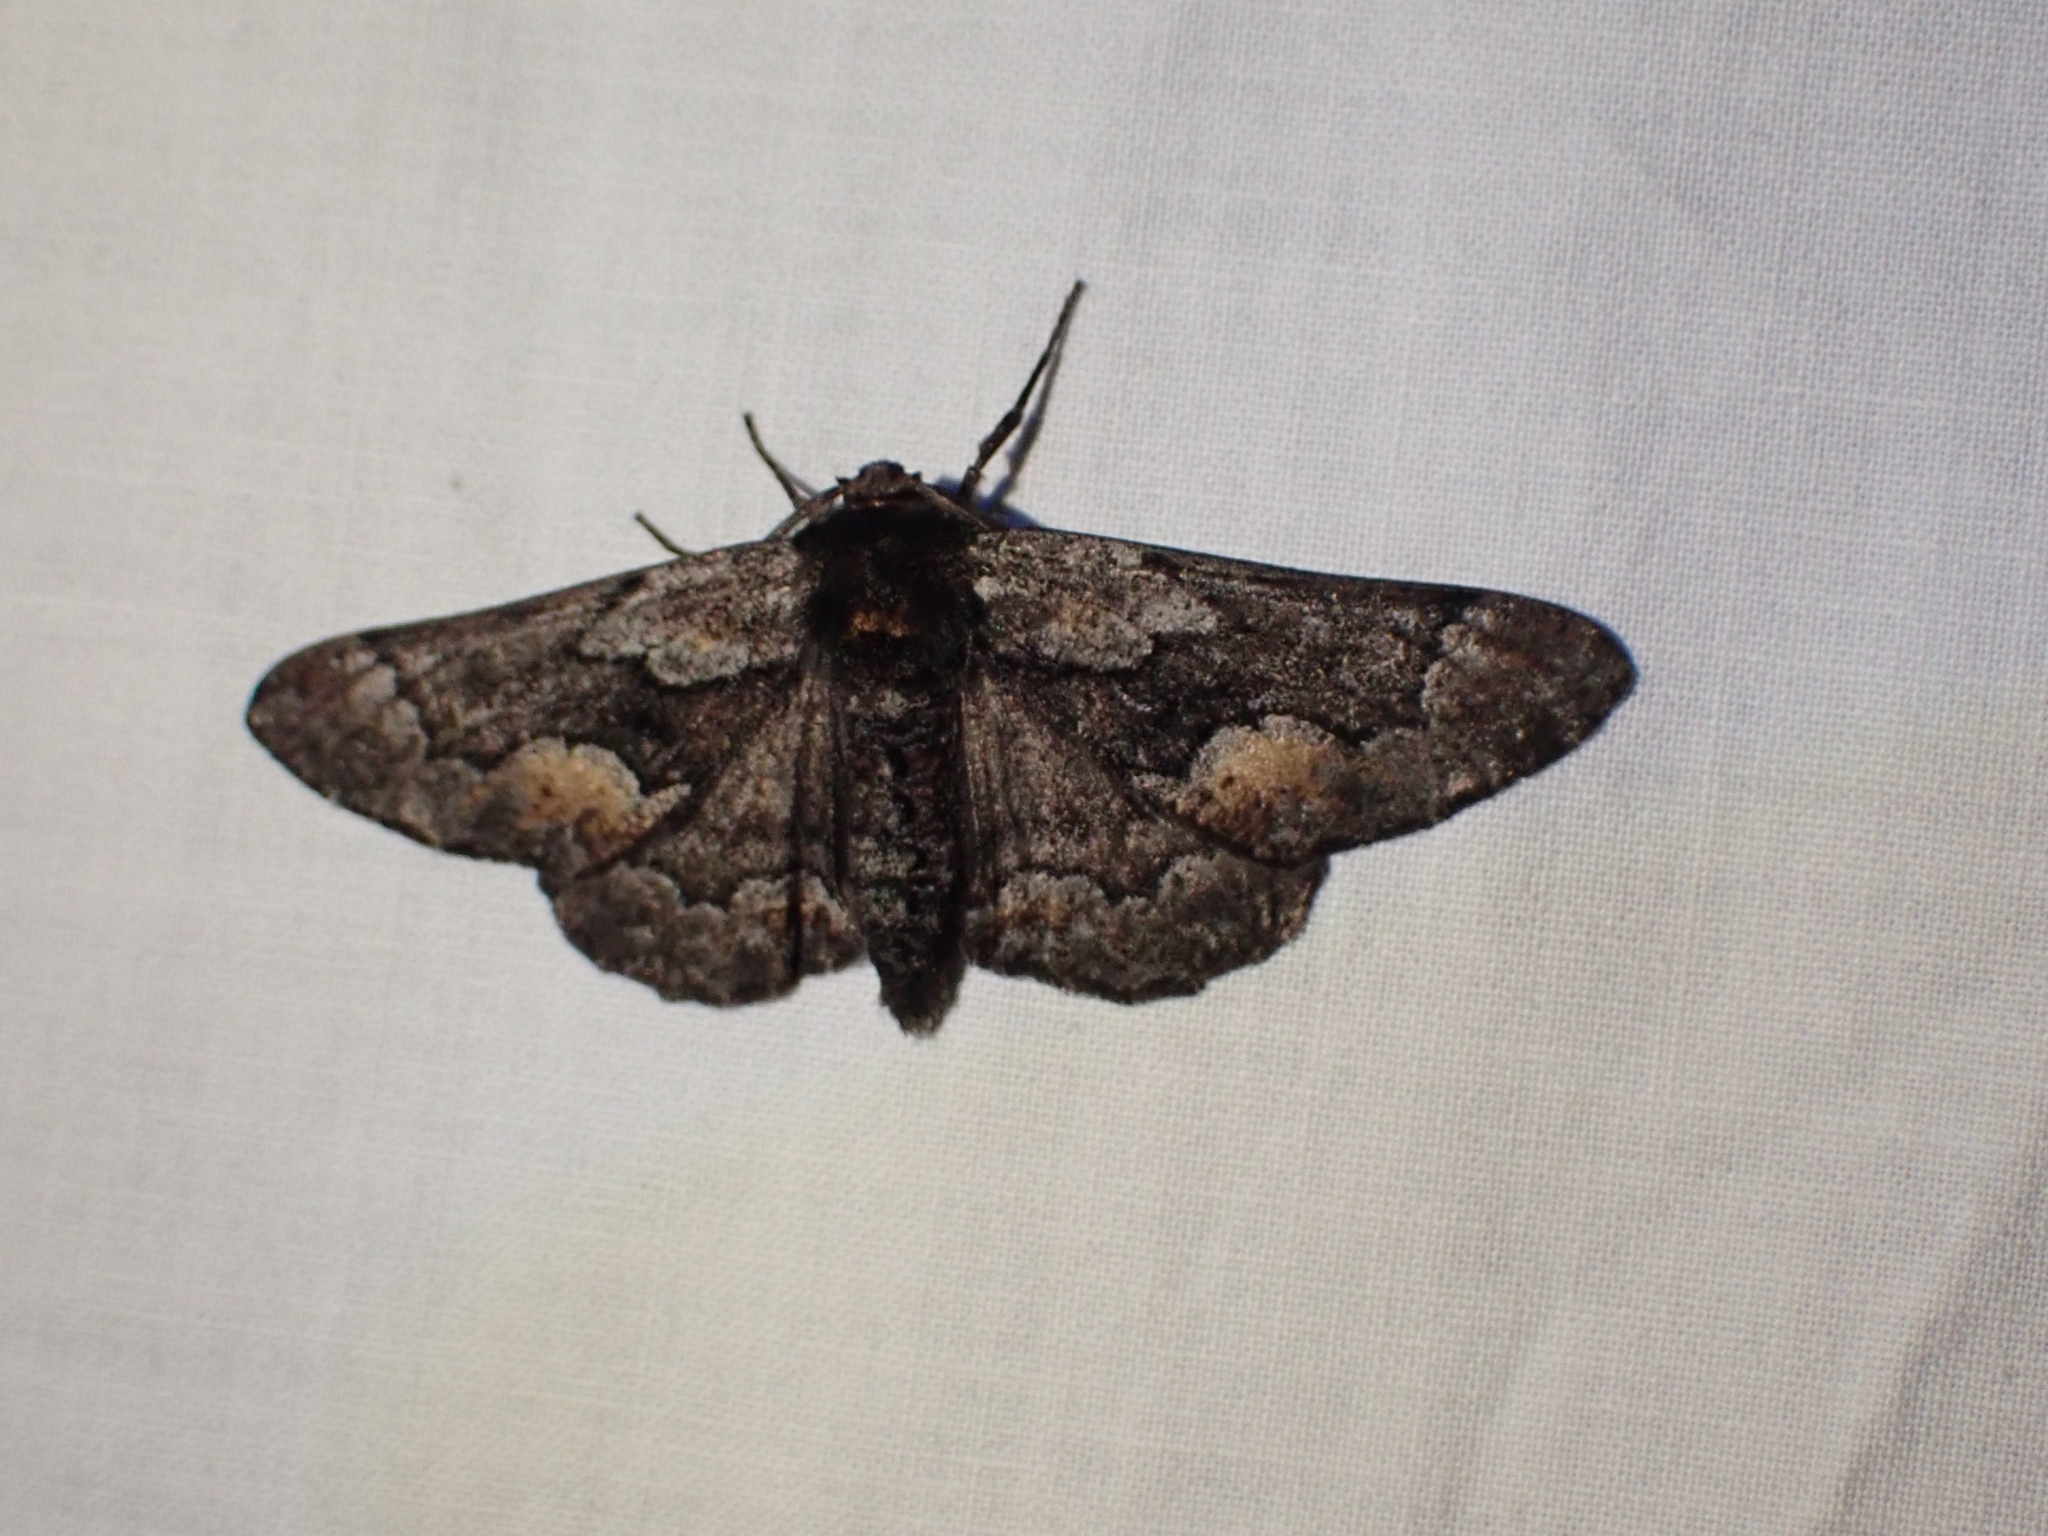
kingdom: Animalia
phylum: Arthropoda
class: Insecta
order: Lepidoptera
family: Geometridae
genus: Phaeoura
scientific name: Phaeoura mexicanaria
